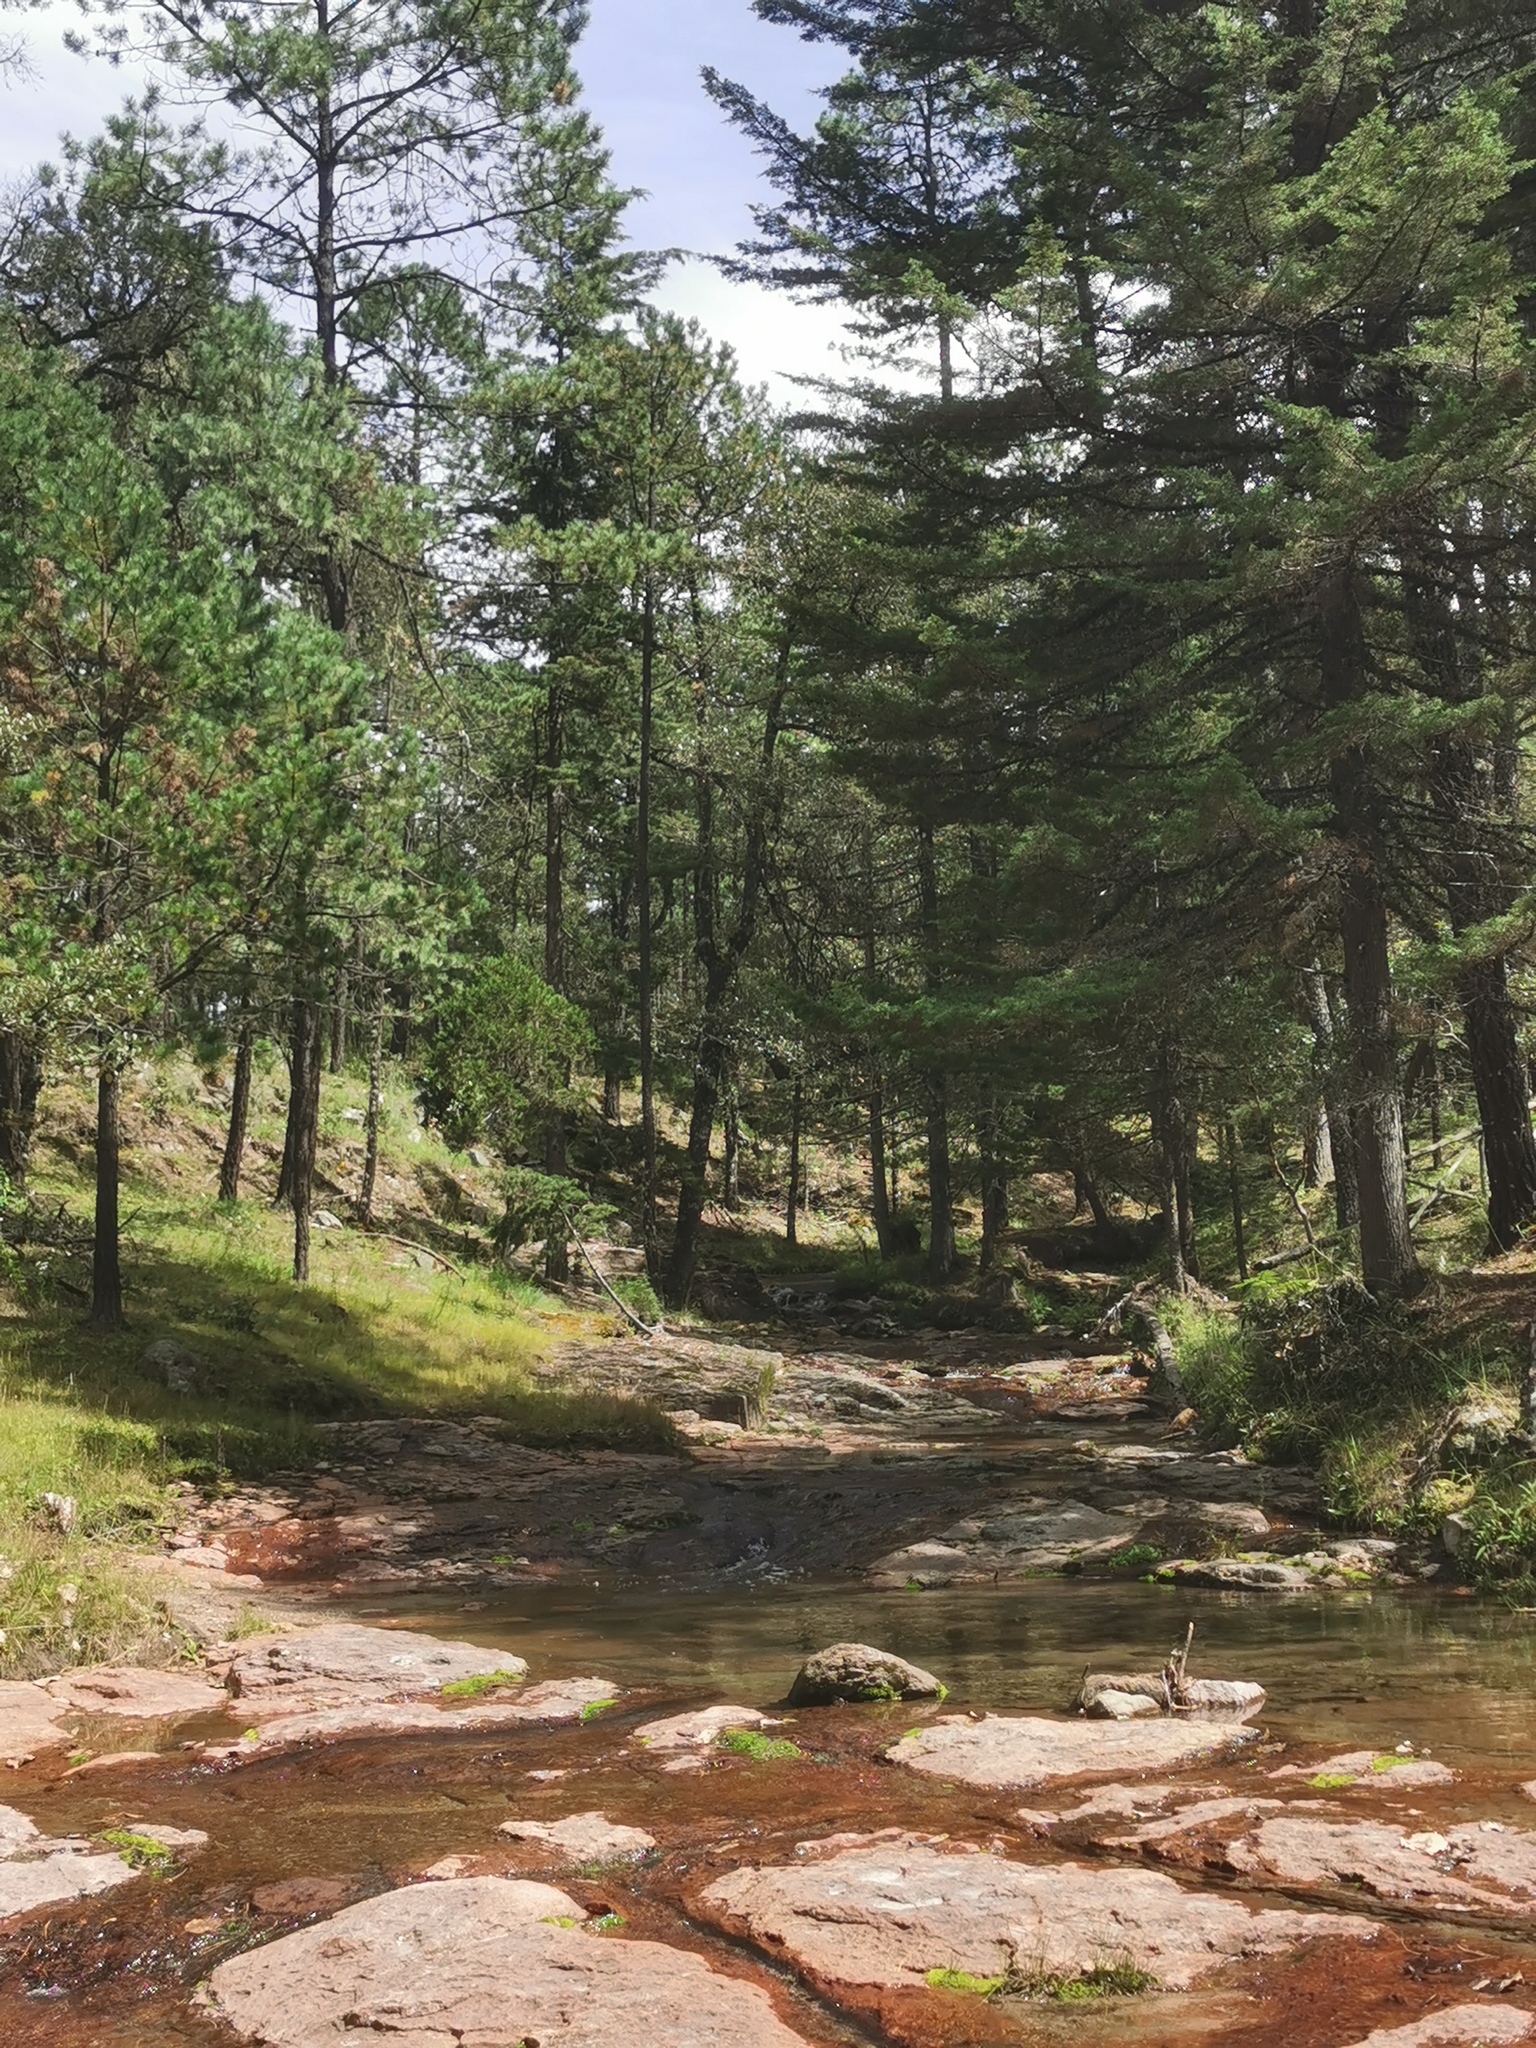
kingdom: Plantae
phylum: Tracheophyta
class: Pinopsida
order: Pinales
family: Cupressaceae
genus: Cupressus
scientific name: Cupressus lusitanica
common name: Mexican cypress
